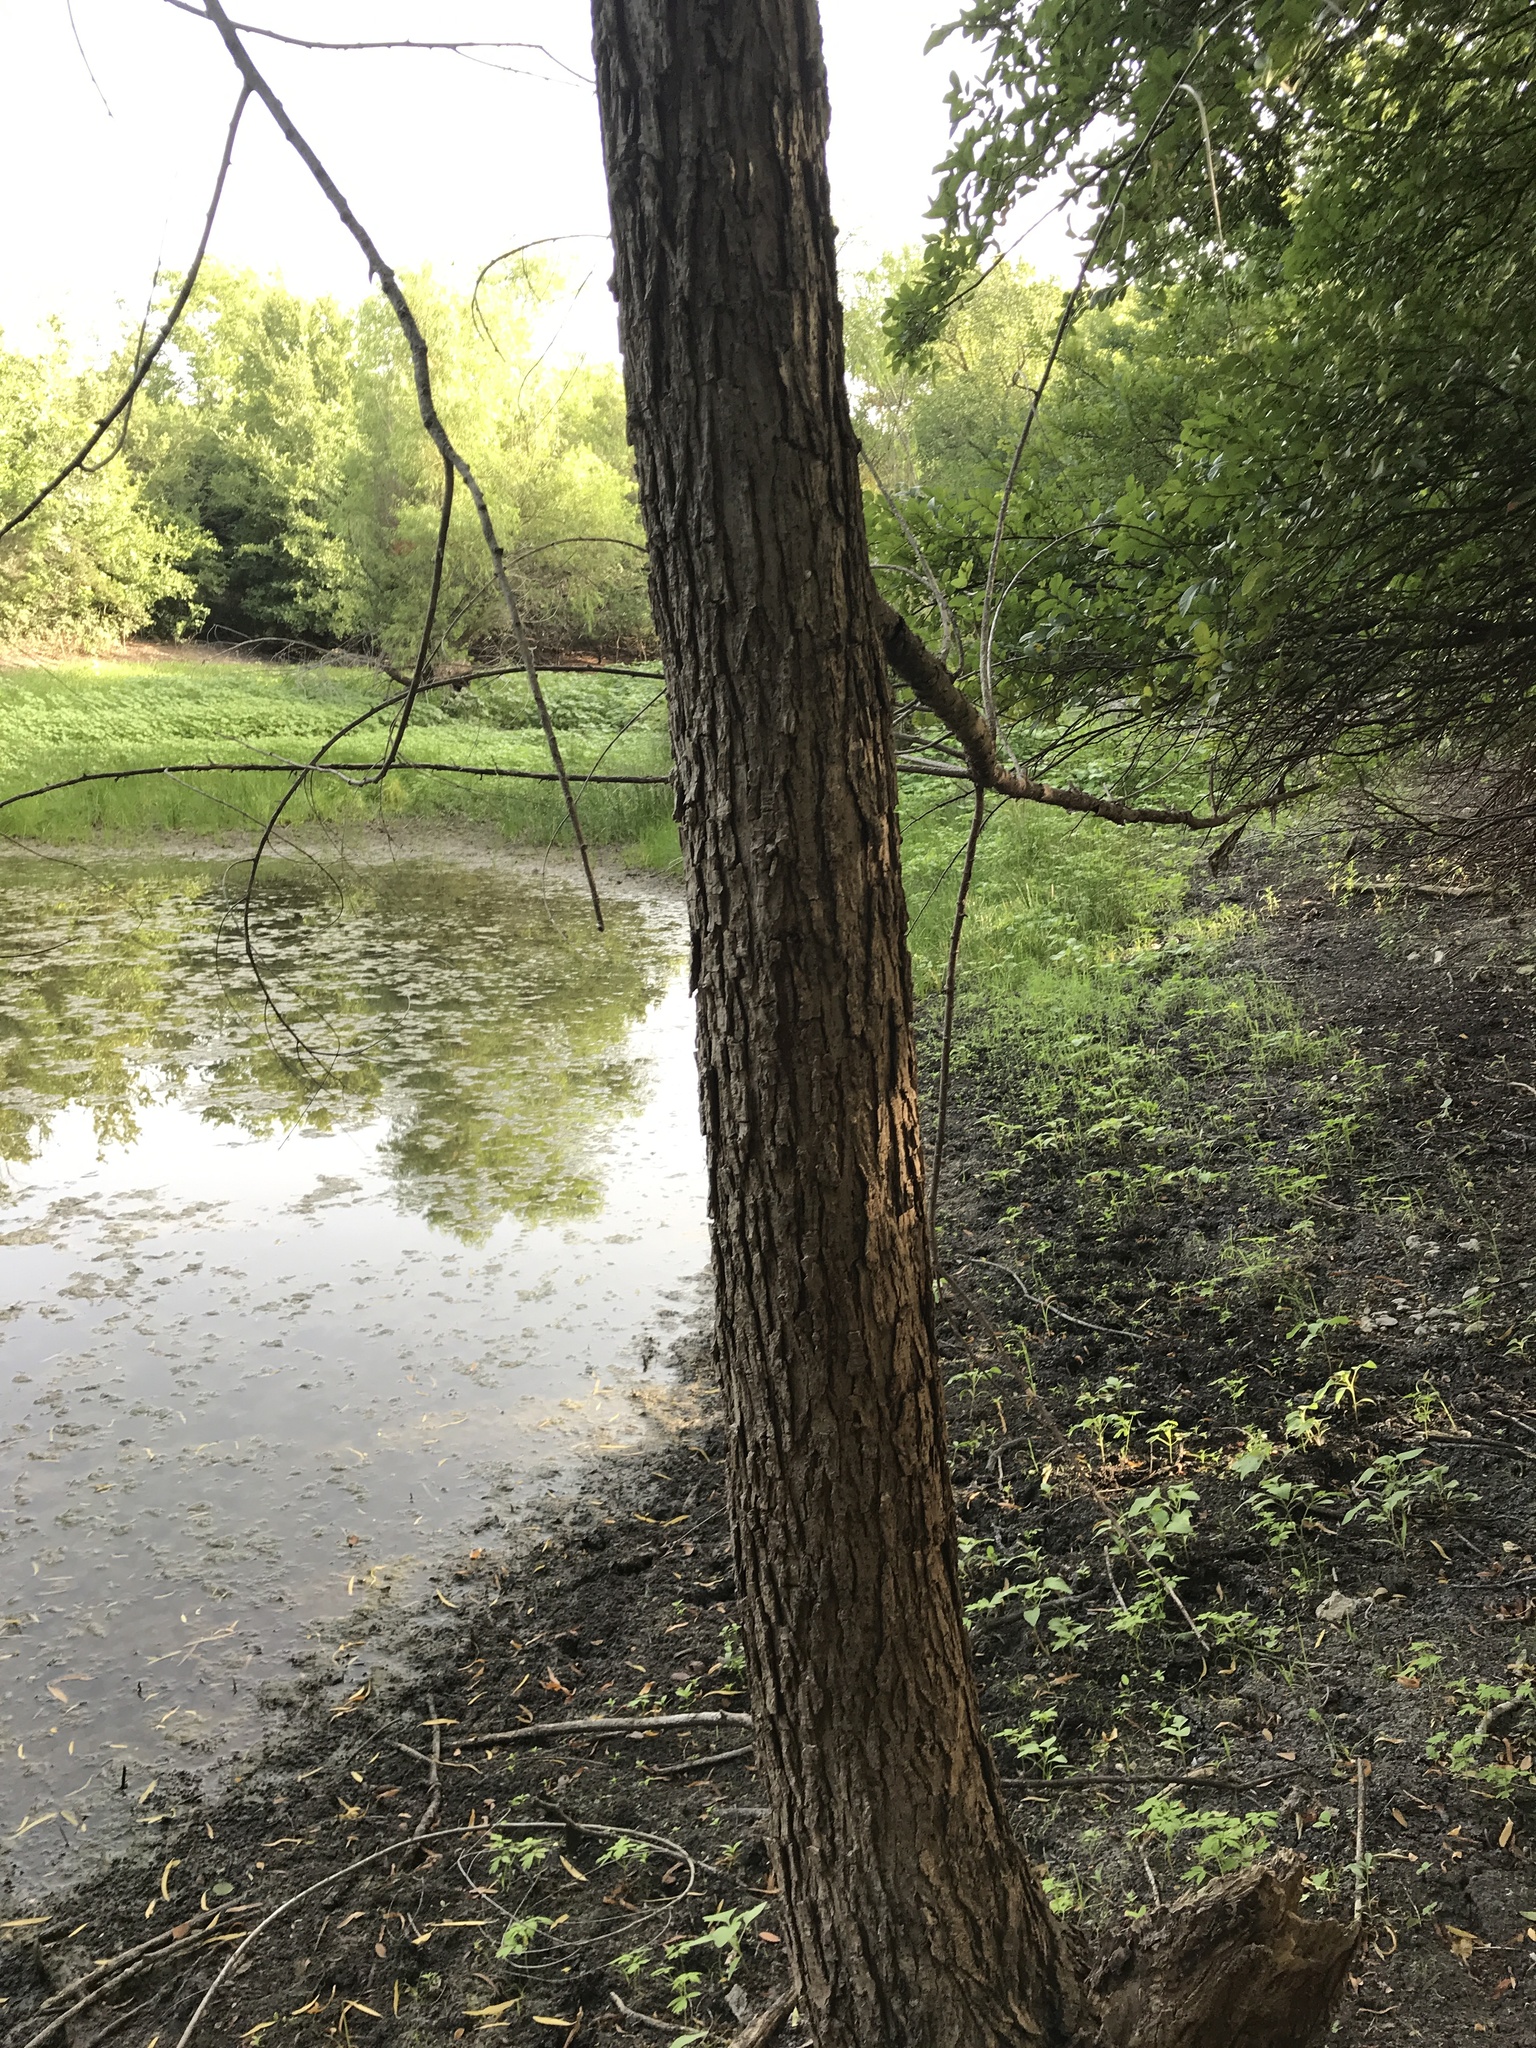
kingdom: Plantae
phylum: Tracheophyta
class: Magnoliopsida
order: Malpighiales
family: Salicaceae
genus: Salix
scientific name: Salix nigra
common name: Black willow
